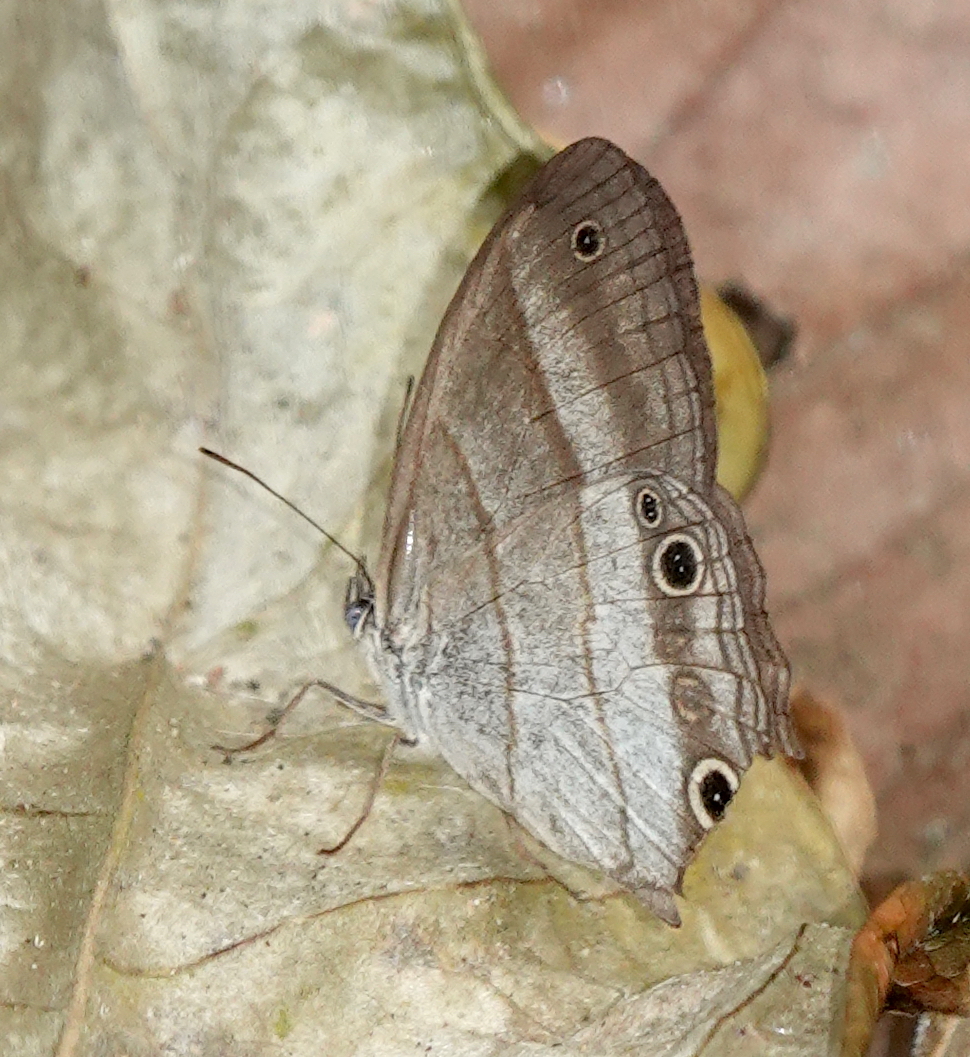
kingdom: Animalia
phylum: Arthropoda
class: Insecta
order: Lepidoptera
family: Nymphalidae
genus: Euptychoides
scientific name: Euptychoides saturnus
